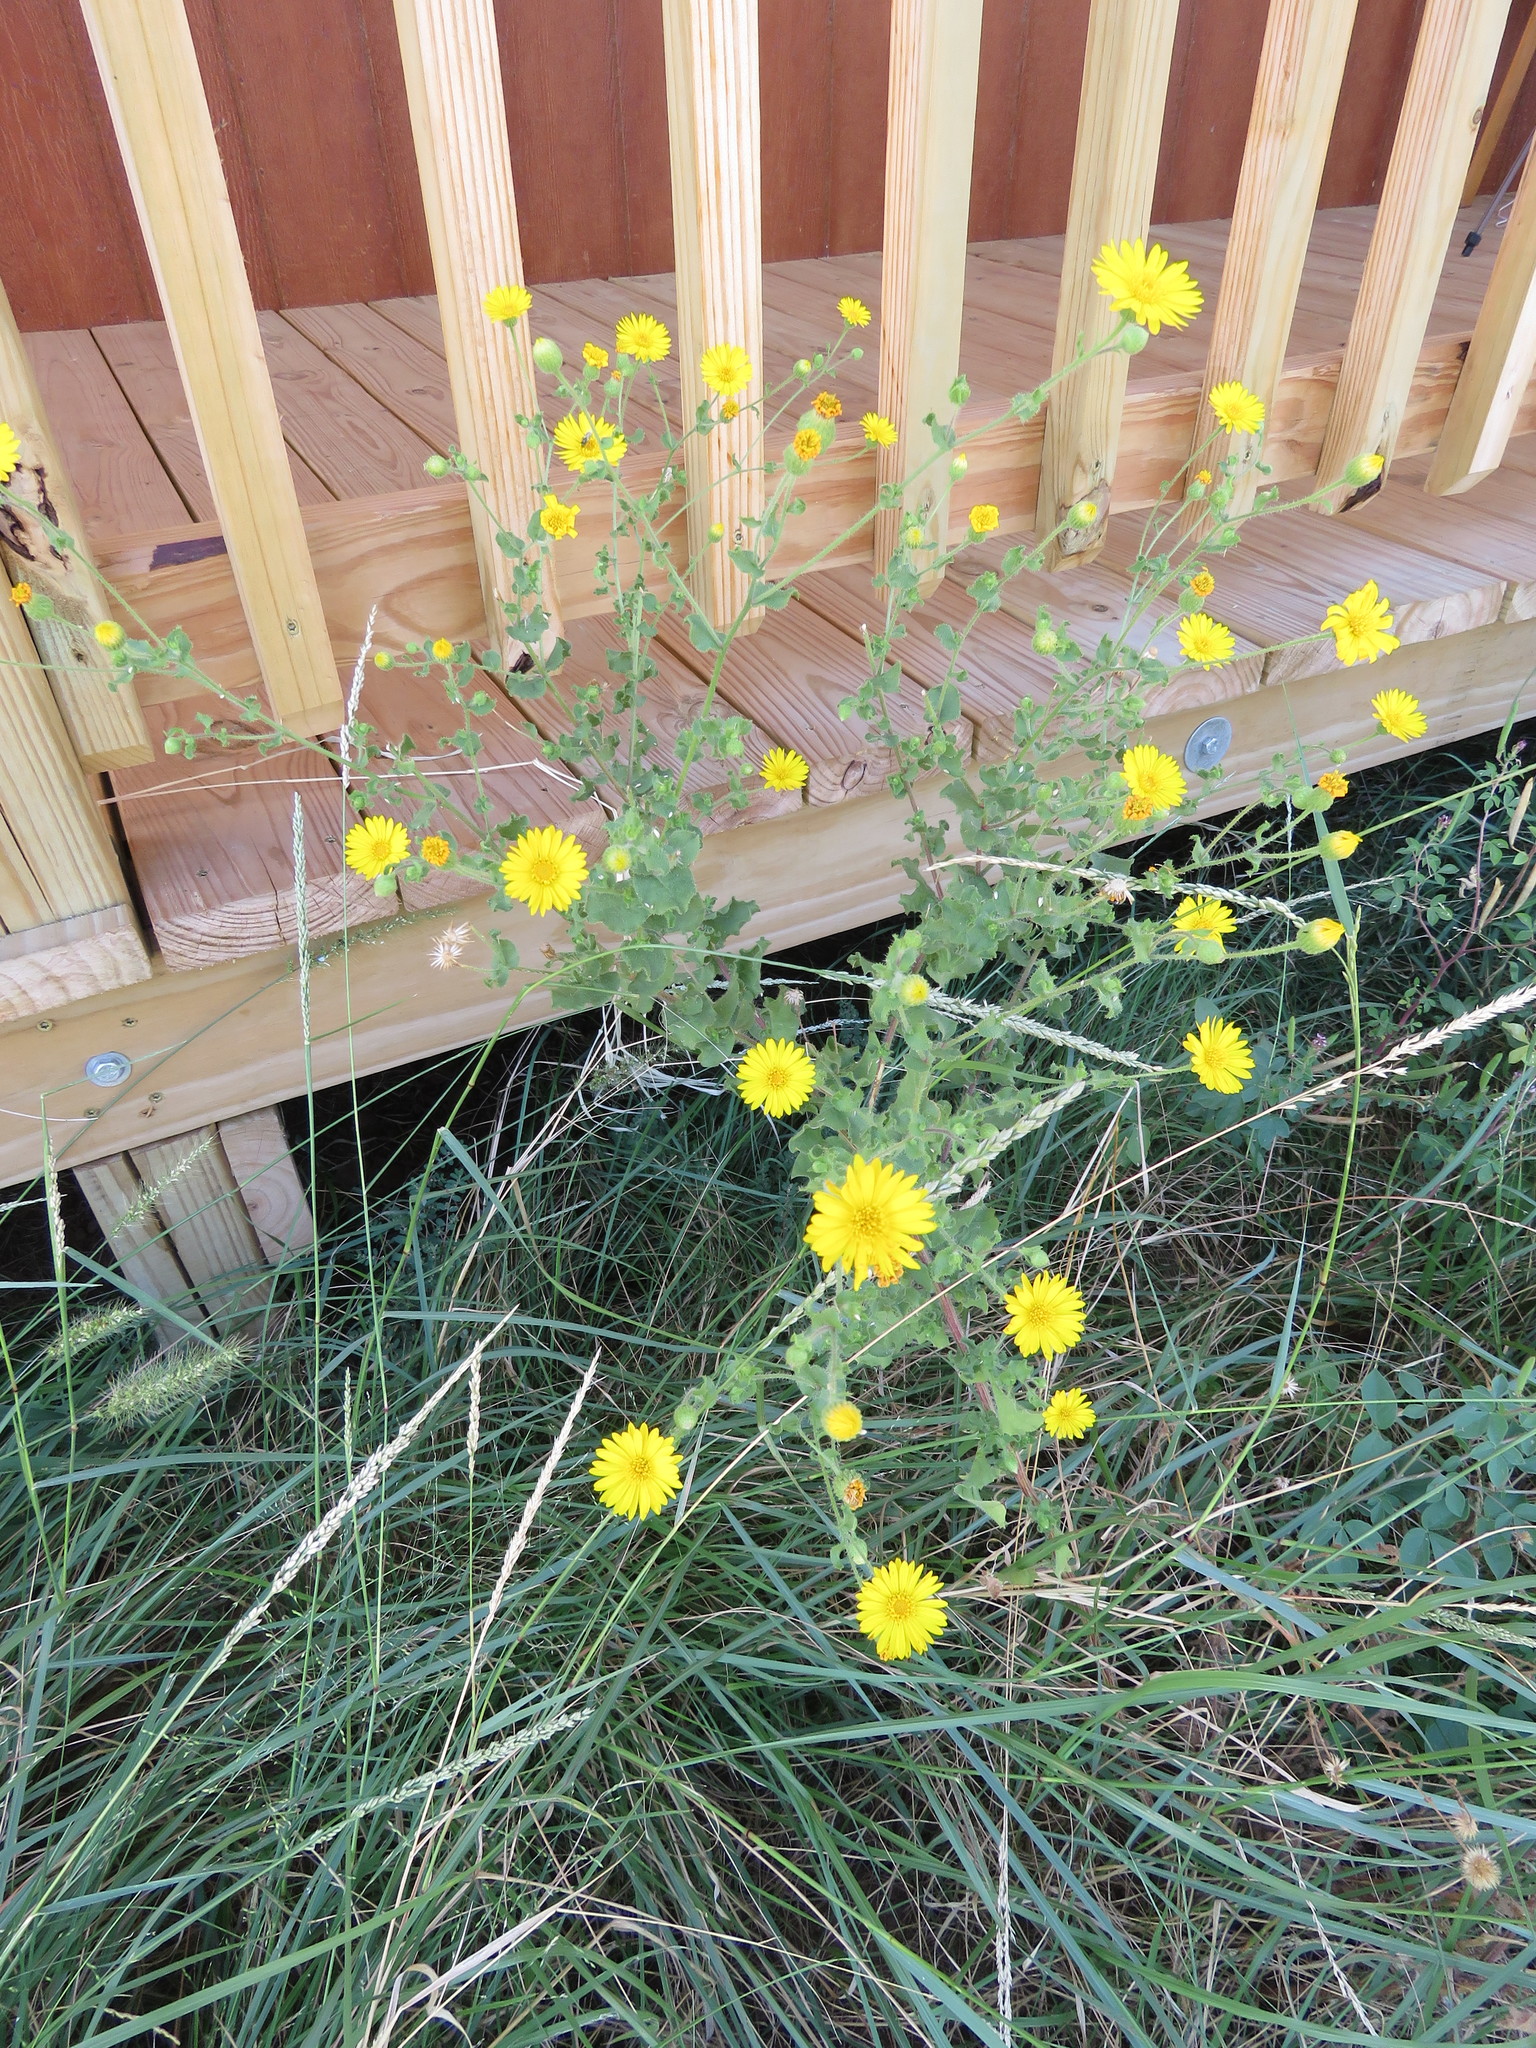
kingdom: Plantae
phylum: Tracheophyta
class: Magnoliopsida
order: Asterales
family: Asteraceae
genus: Heterotheca
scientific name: Heterotheca subaxillaris
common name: Camphorweed
